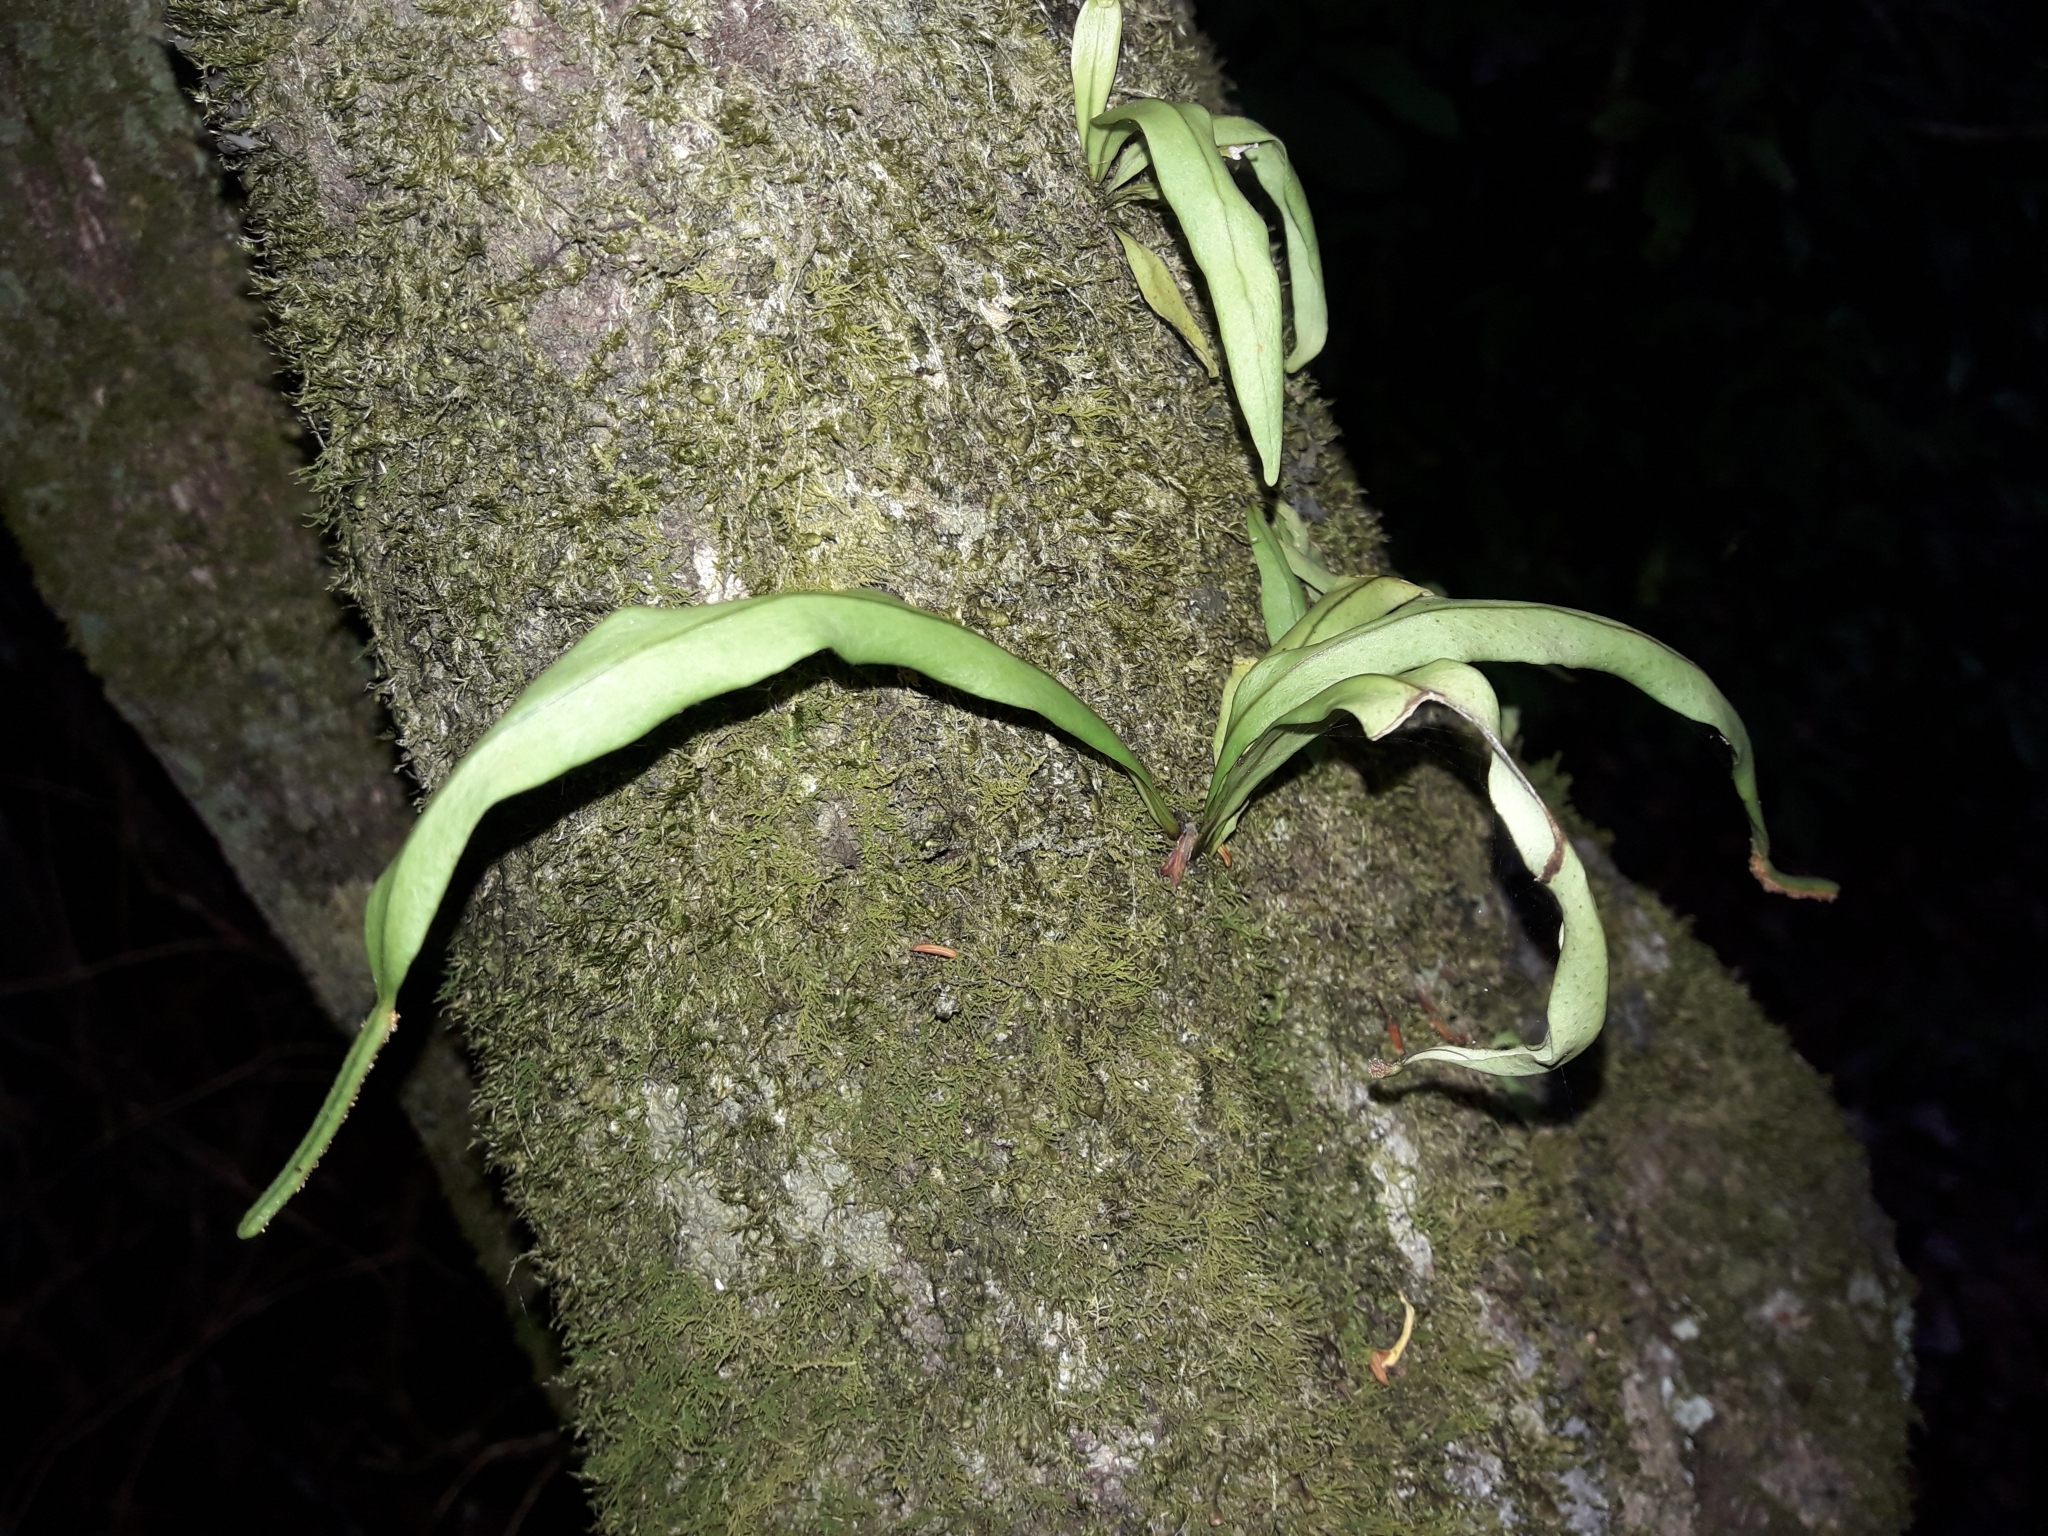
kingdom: Plantae
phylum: Tracheophyta
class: Polypodiopsida
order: Polypodiales
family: Polypodiaceae
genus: Lepisorus
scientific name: Lepisorus spicatus
